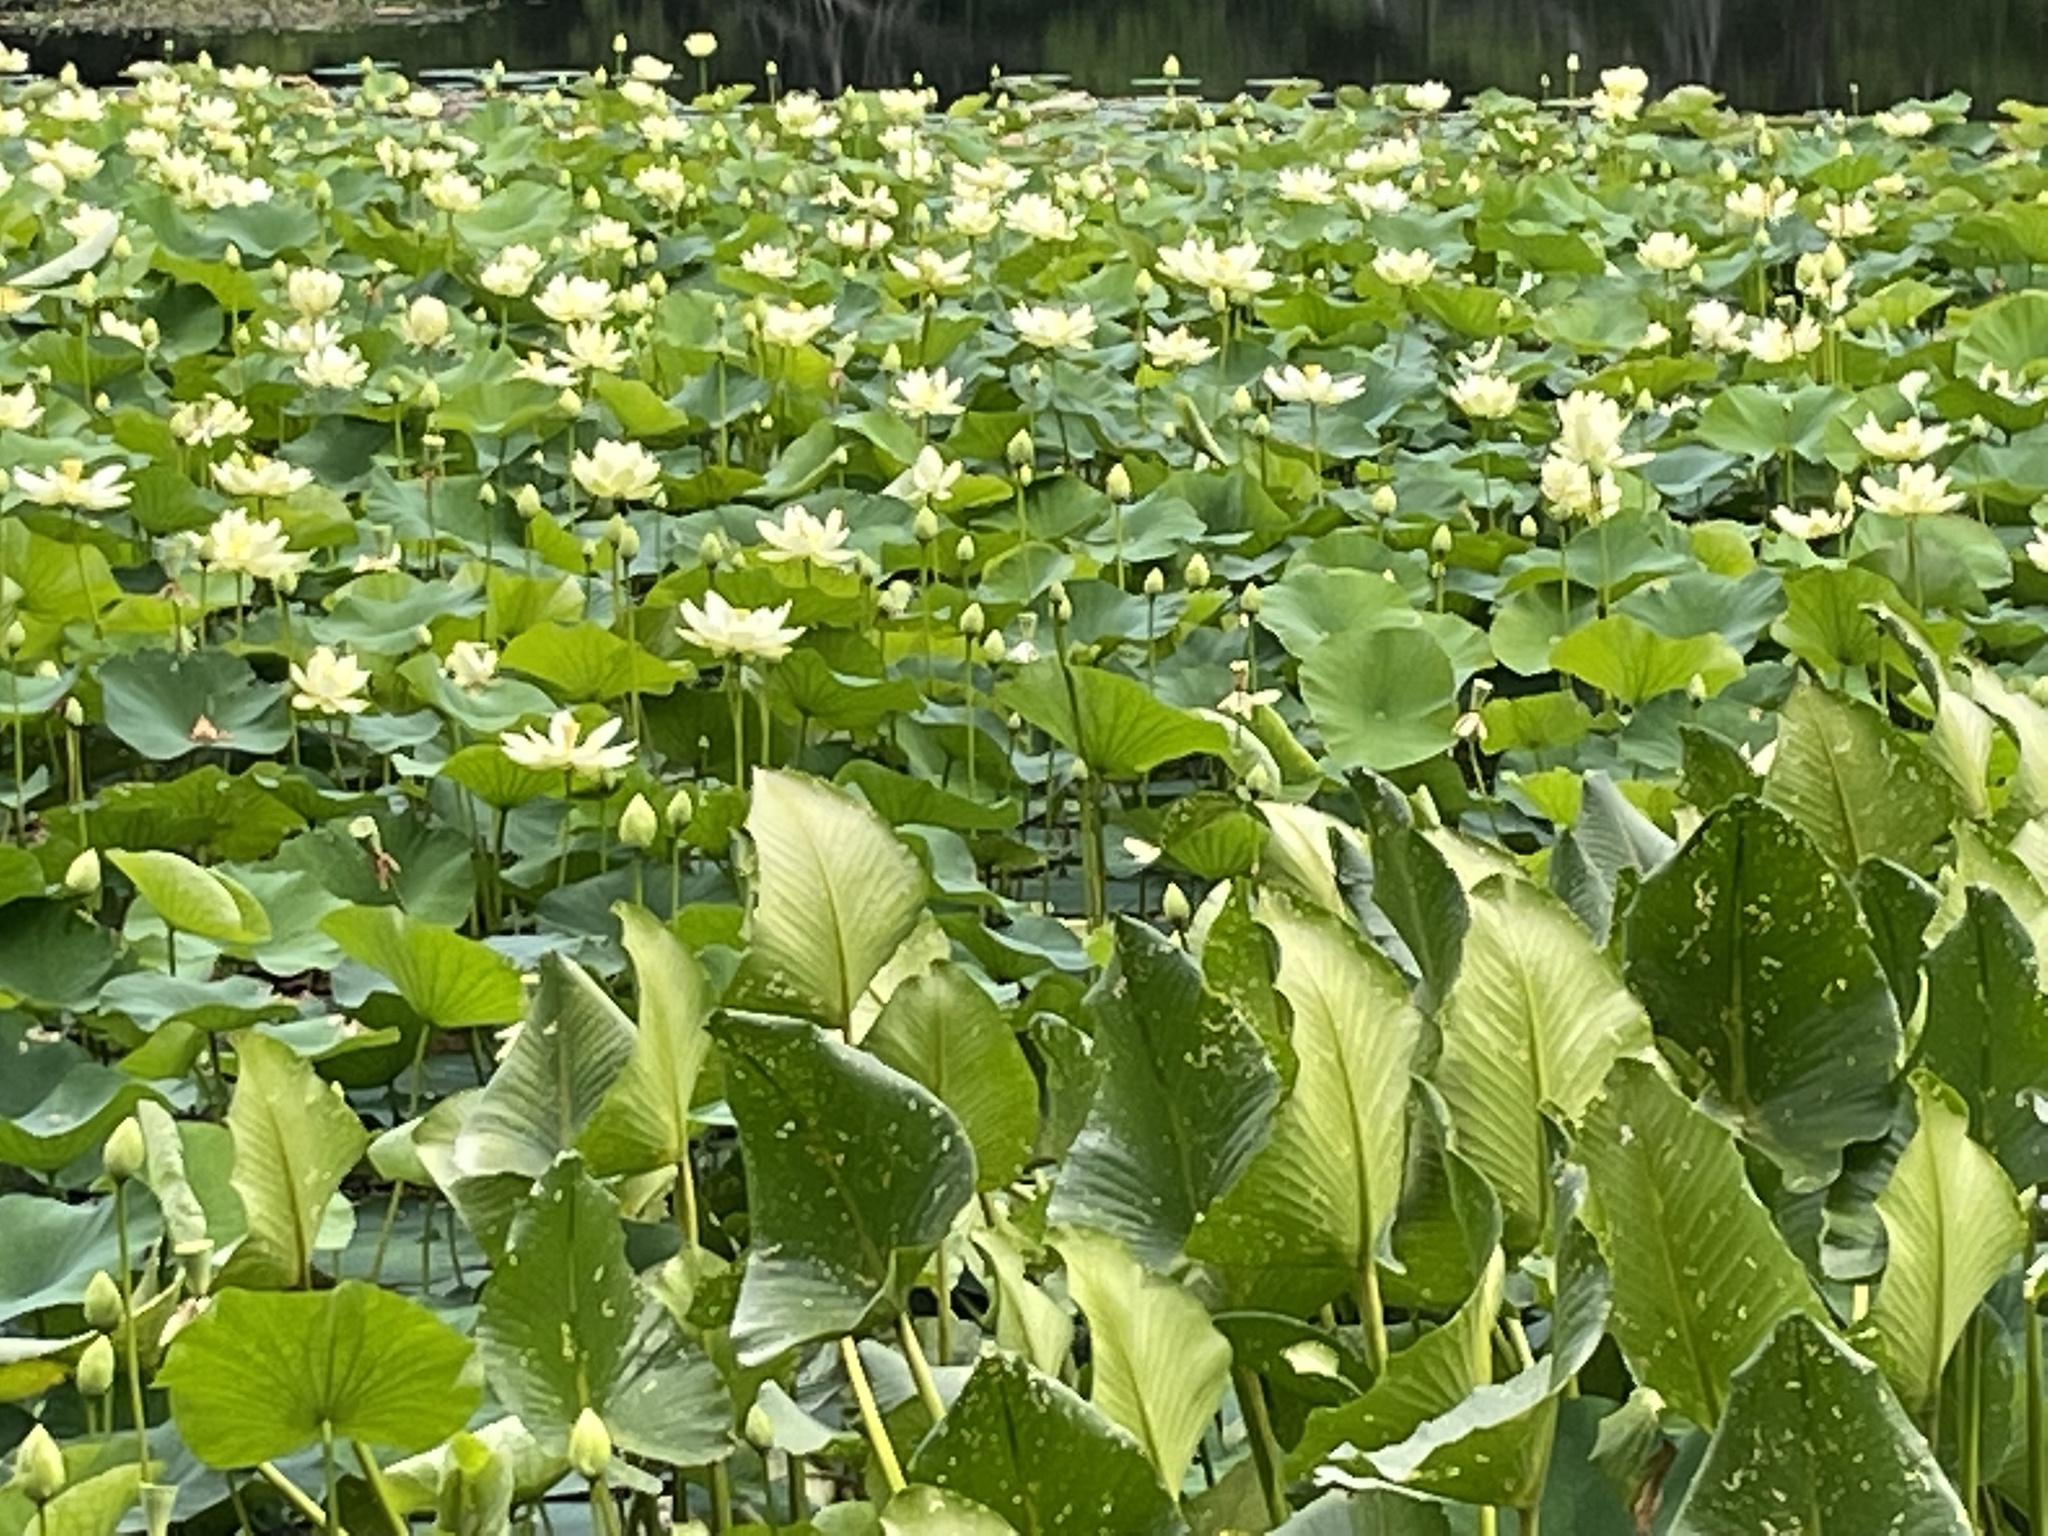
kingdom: Plantae
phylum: Tracheophyta
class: Magnoliopsida
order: Nymphaeales
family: Nymphaeaceae
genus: Nymphaea
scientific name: Nymphaea odorata
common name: Fragrant water-lily
